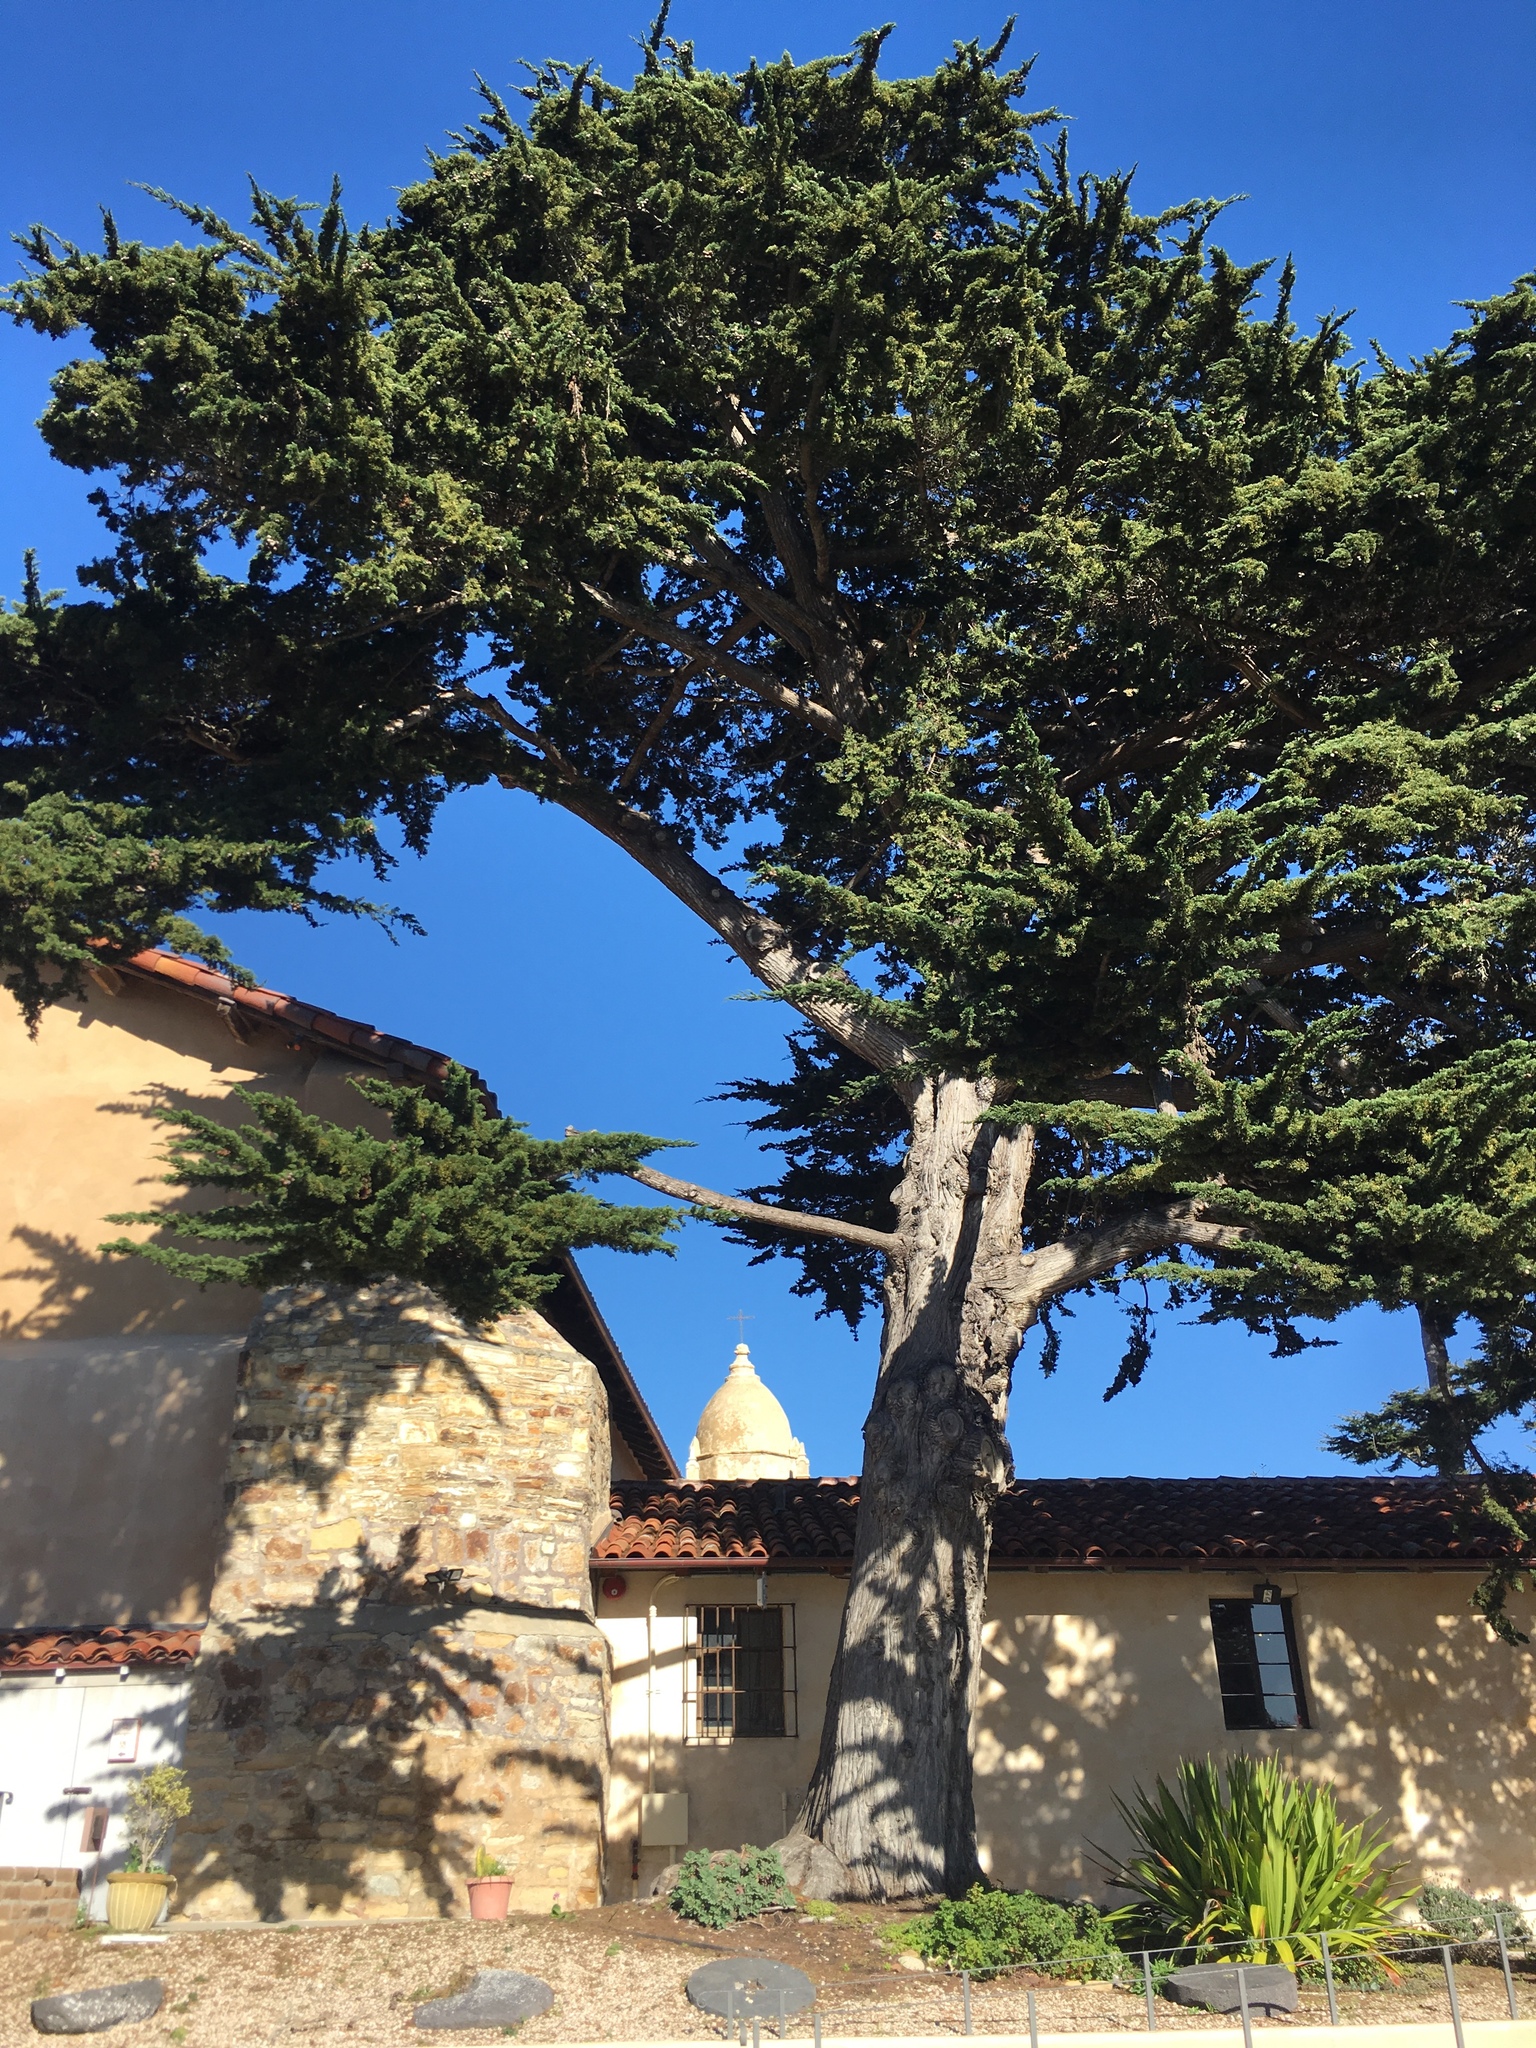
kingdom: Plantae
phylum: Tracheophyta
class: Pinopsida
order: Pinales
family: Cupressaceae
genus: Cupressus
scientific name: Cupressus macrocarpa
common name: Monterey cypress
